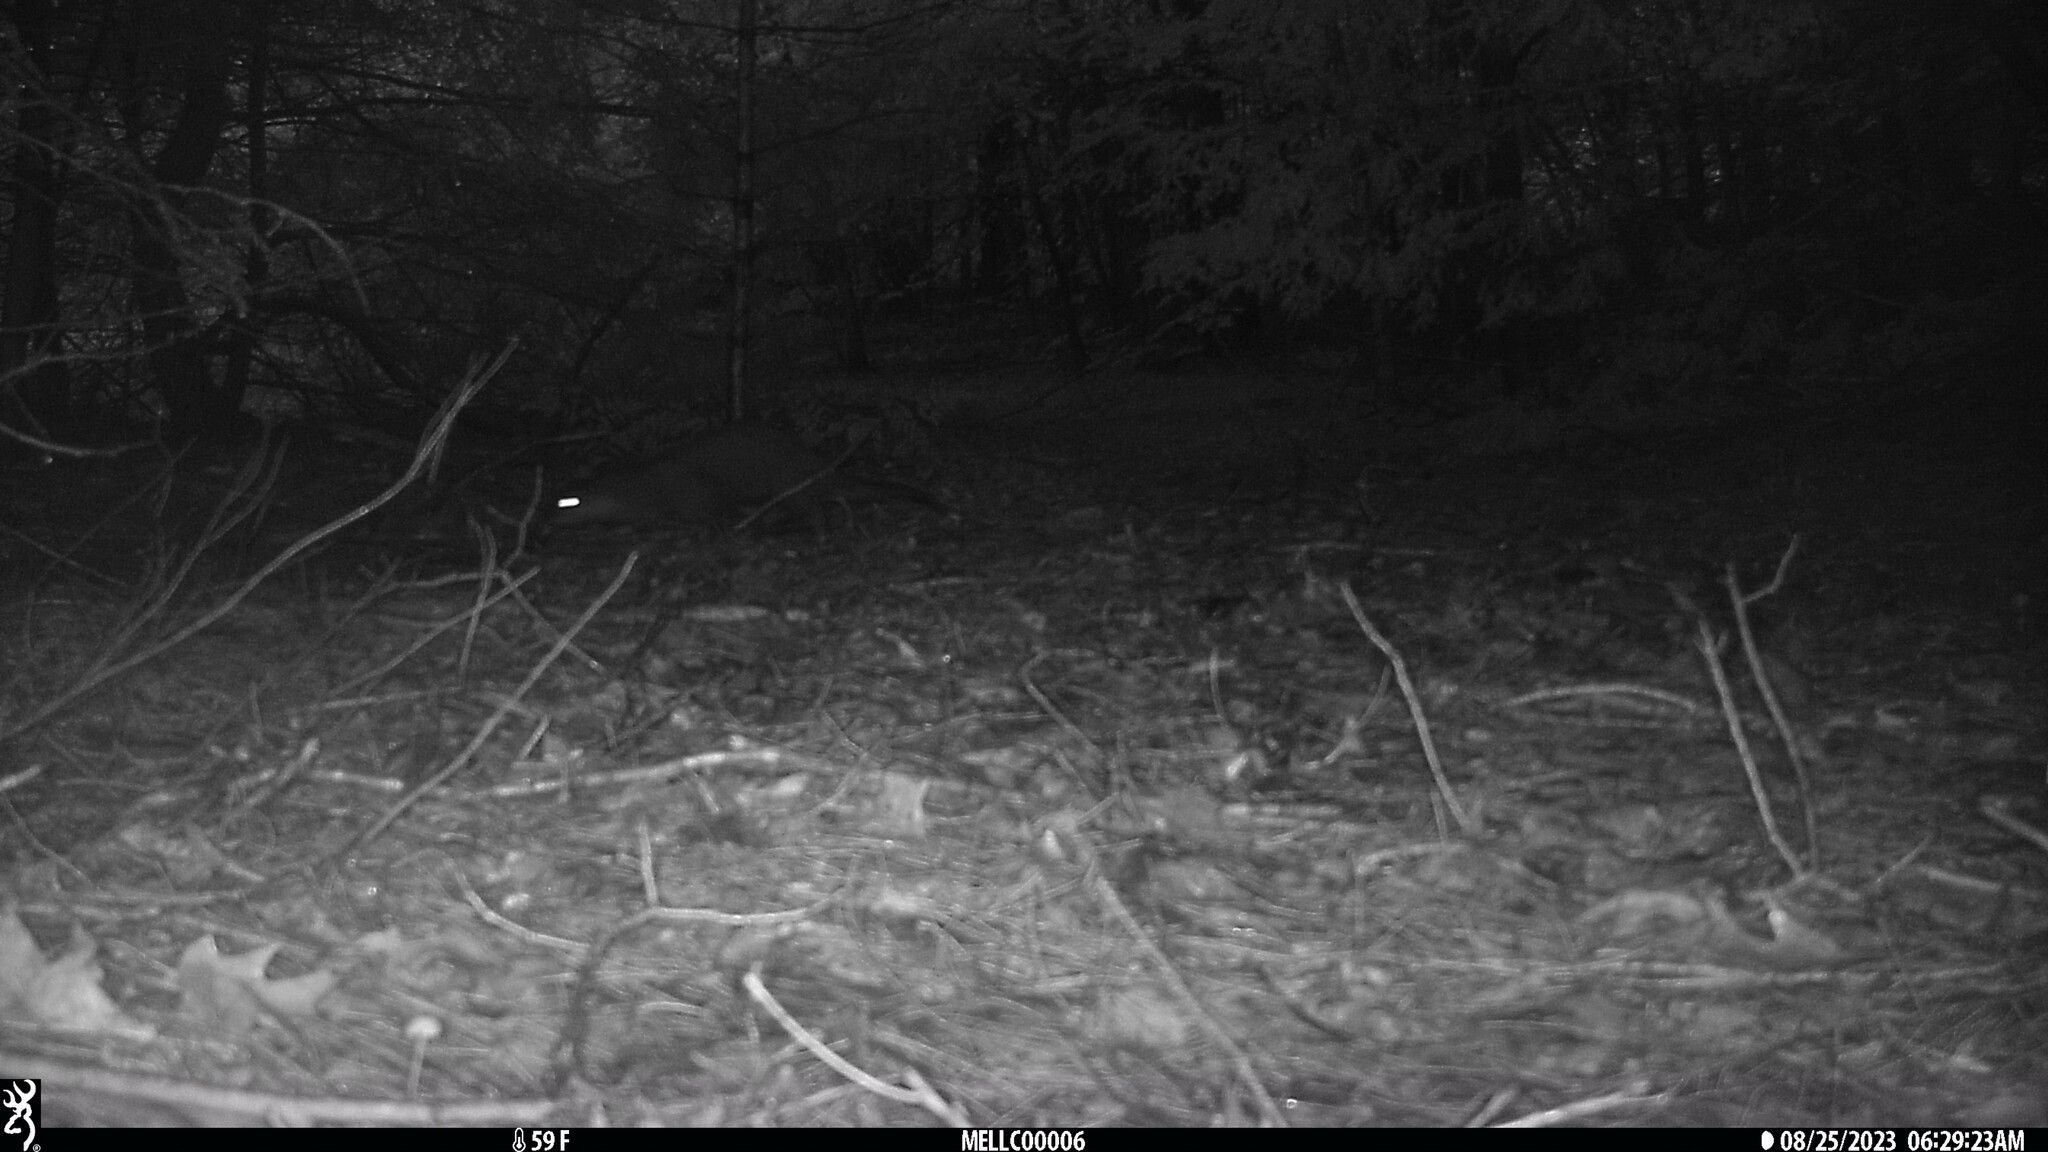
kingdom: Animalia
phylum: Chordata
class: Mammalia
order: Carnivora
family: Mustelidae
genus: Lontra
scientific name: Lontra canadensis
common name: North american river otter
